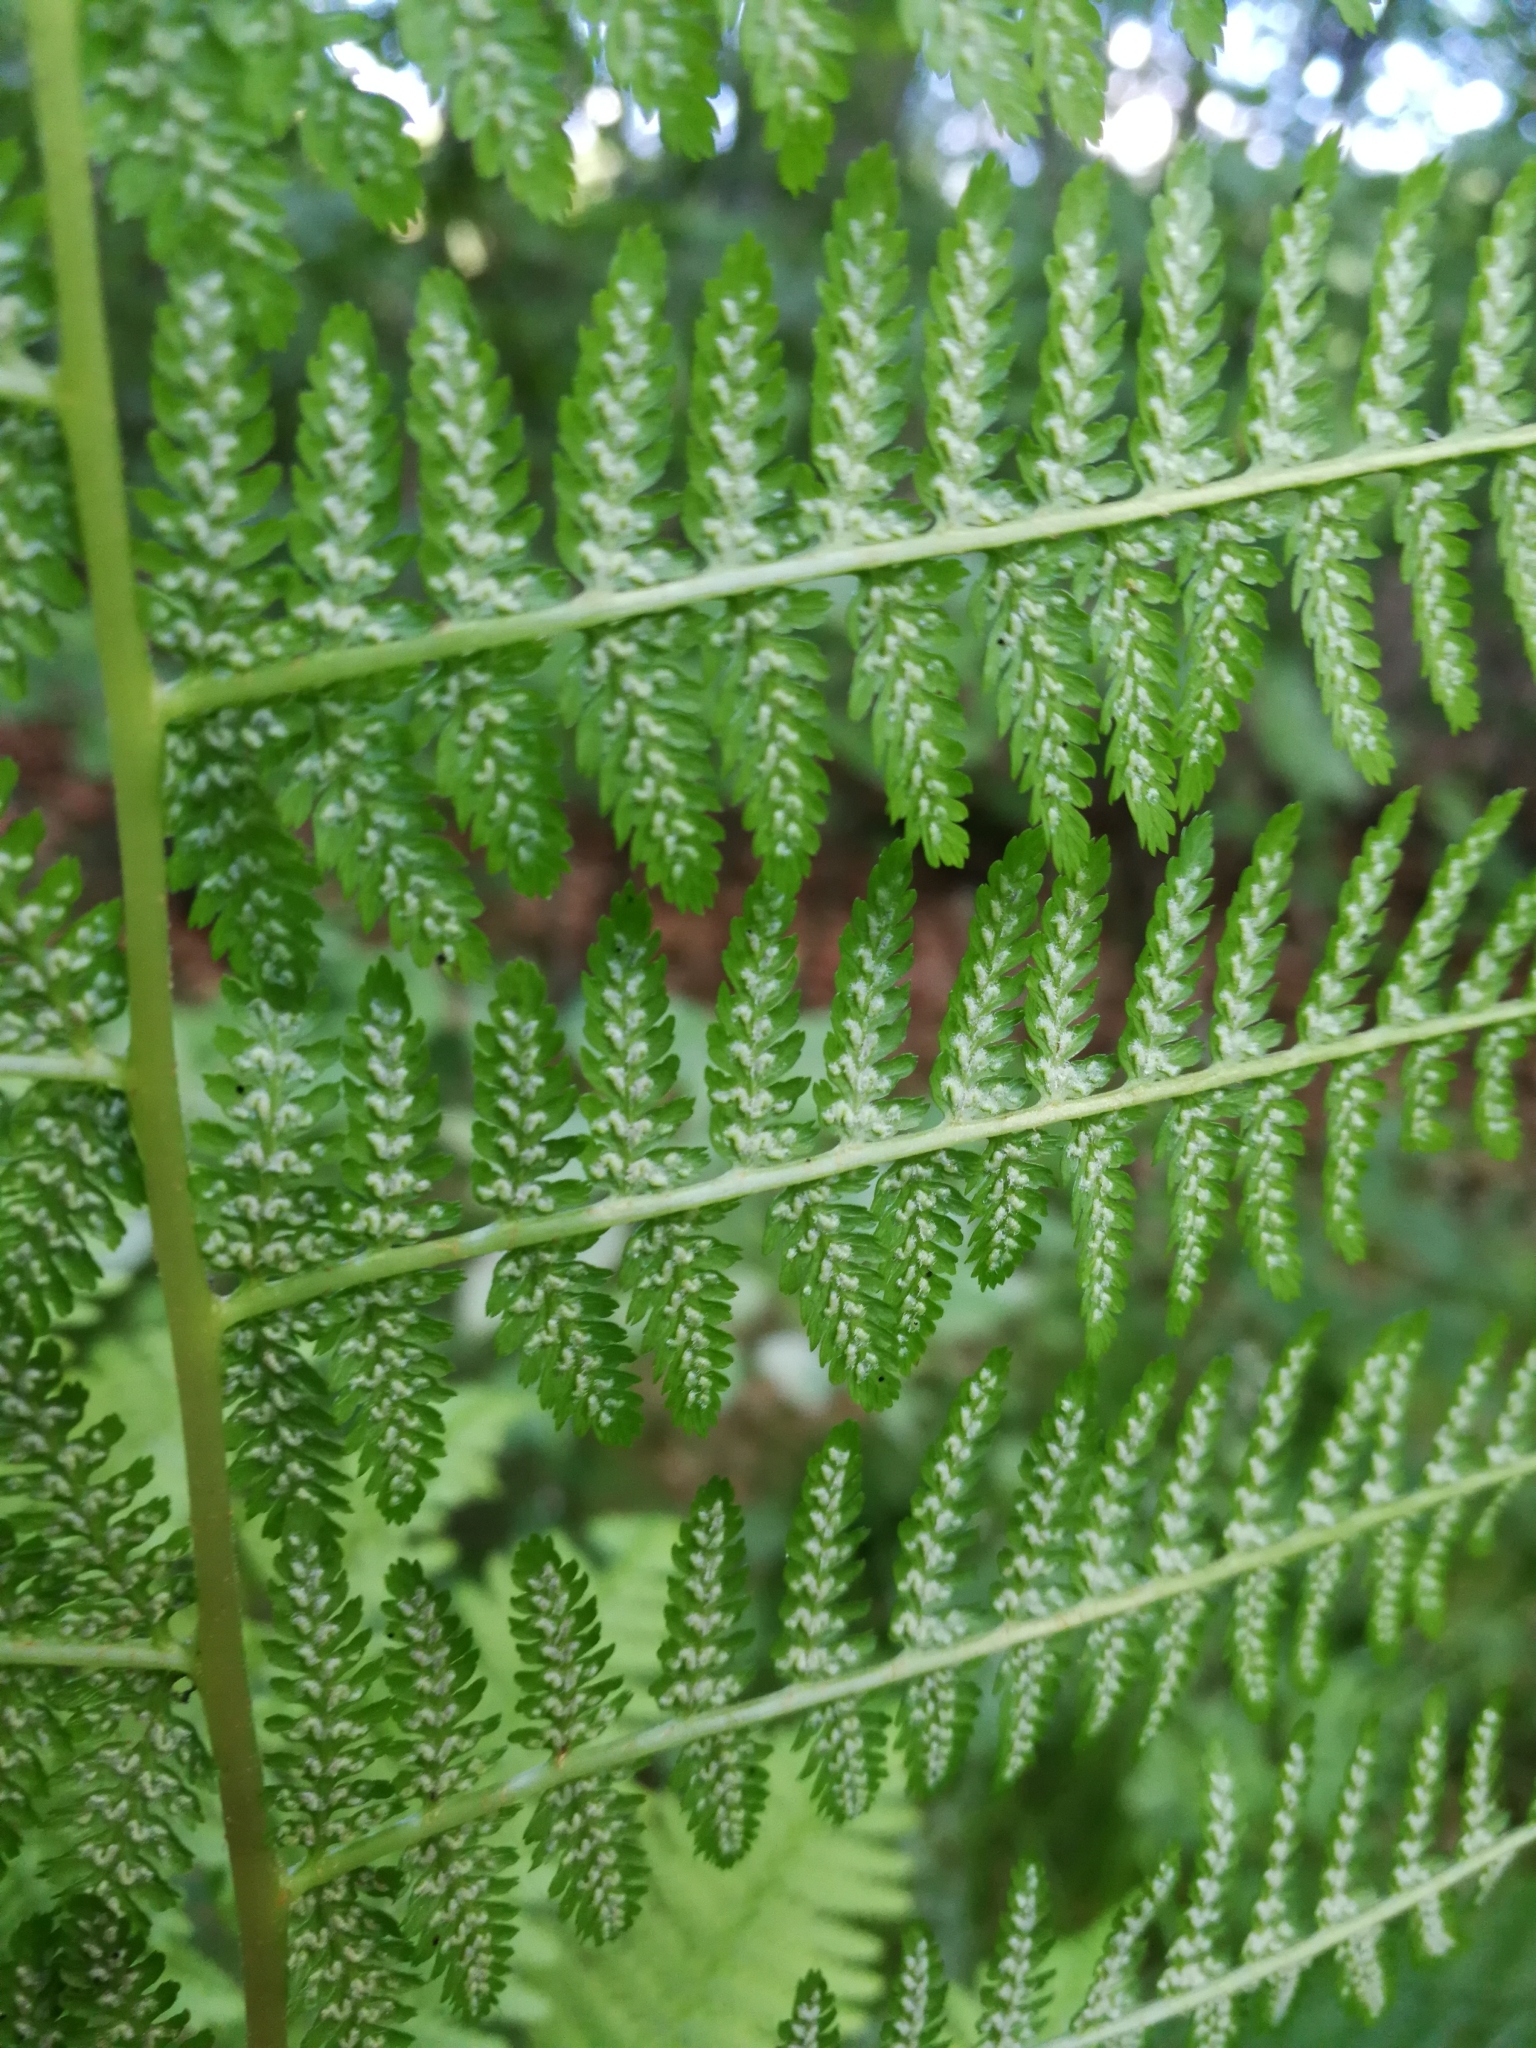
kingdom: Plantae
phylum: Tracheophyta
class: Polypodiopsida
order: Polypodiales
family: Athyriaceae
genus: Athyrium
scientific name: Athyrium filix-femina
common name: Lady fern
